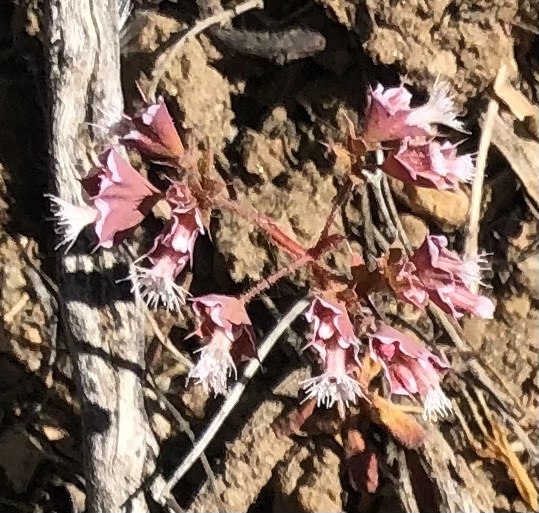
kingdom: Plantae
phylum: Tracheophyta
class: Magnoliopsida
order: Caryophyllales
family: Polygonaceae
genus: Sidotheca
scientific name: Sidotheca emarginata
